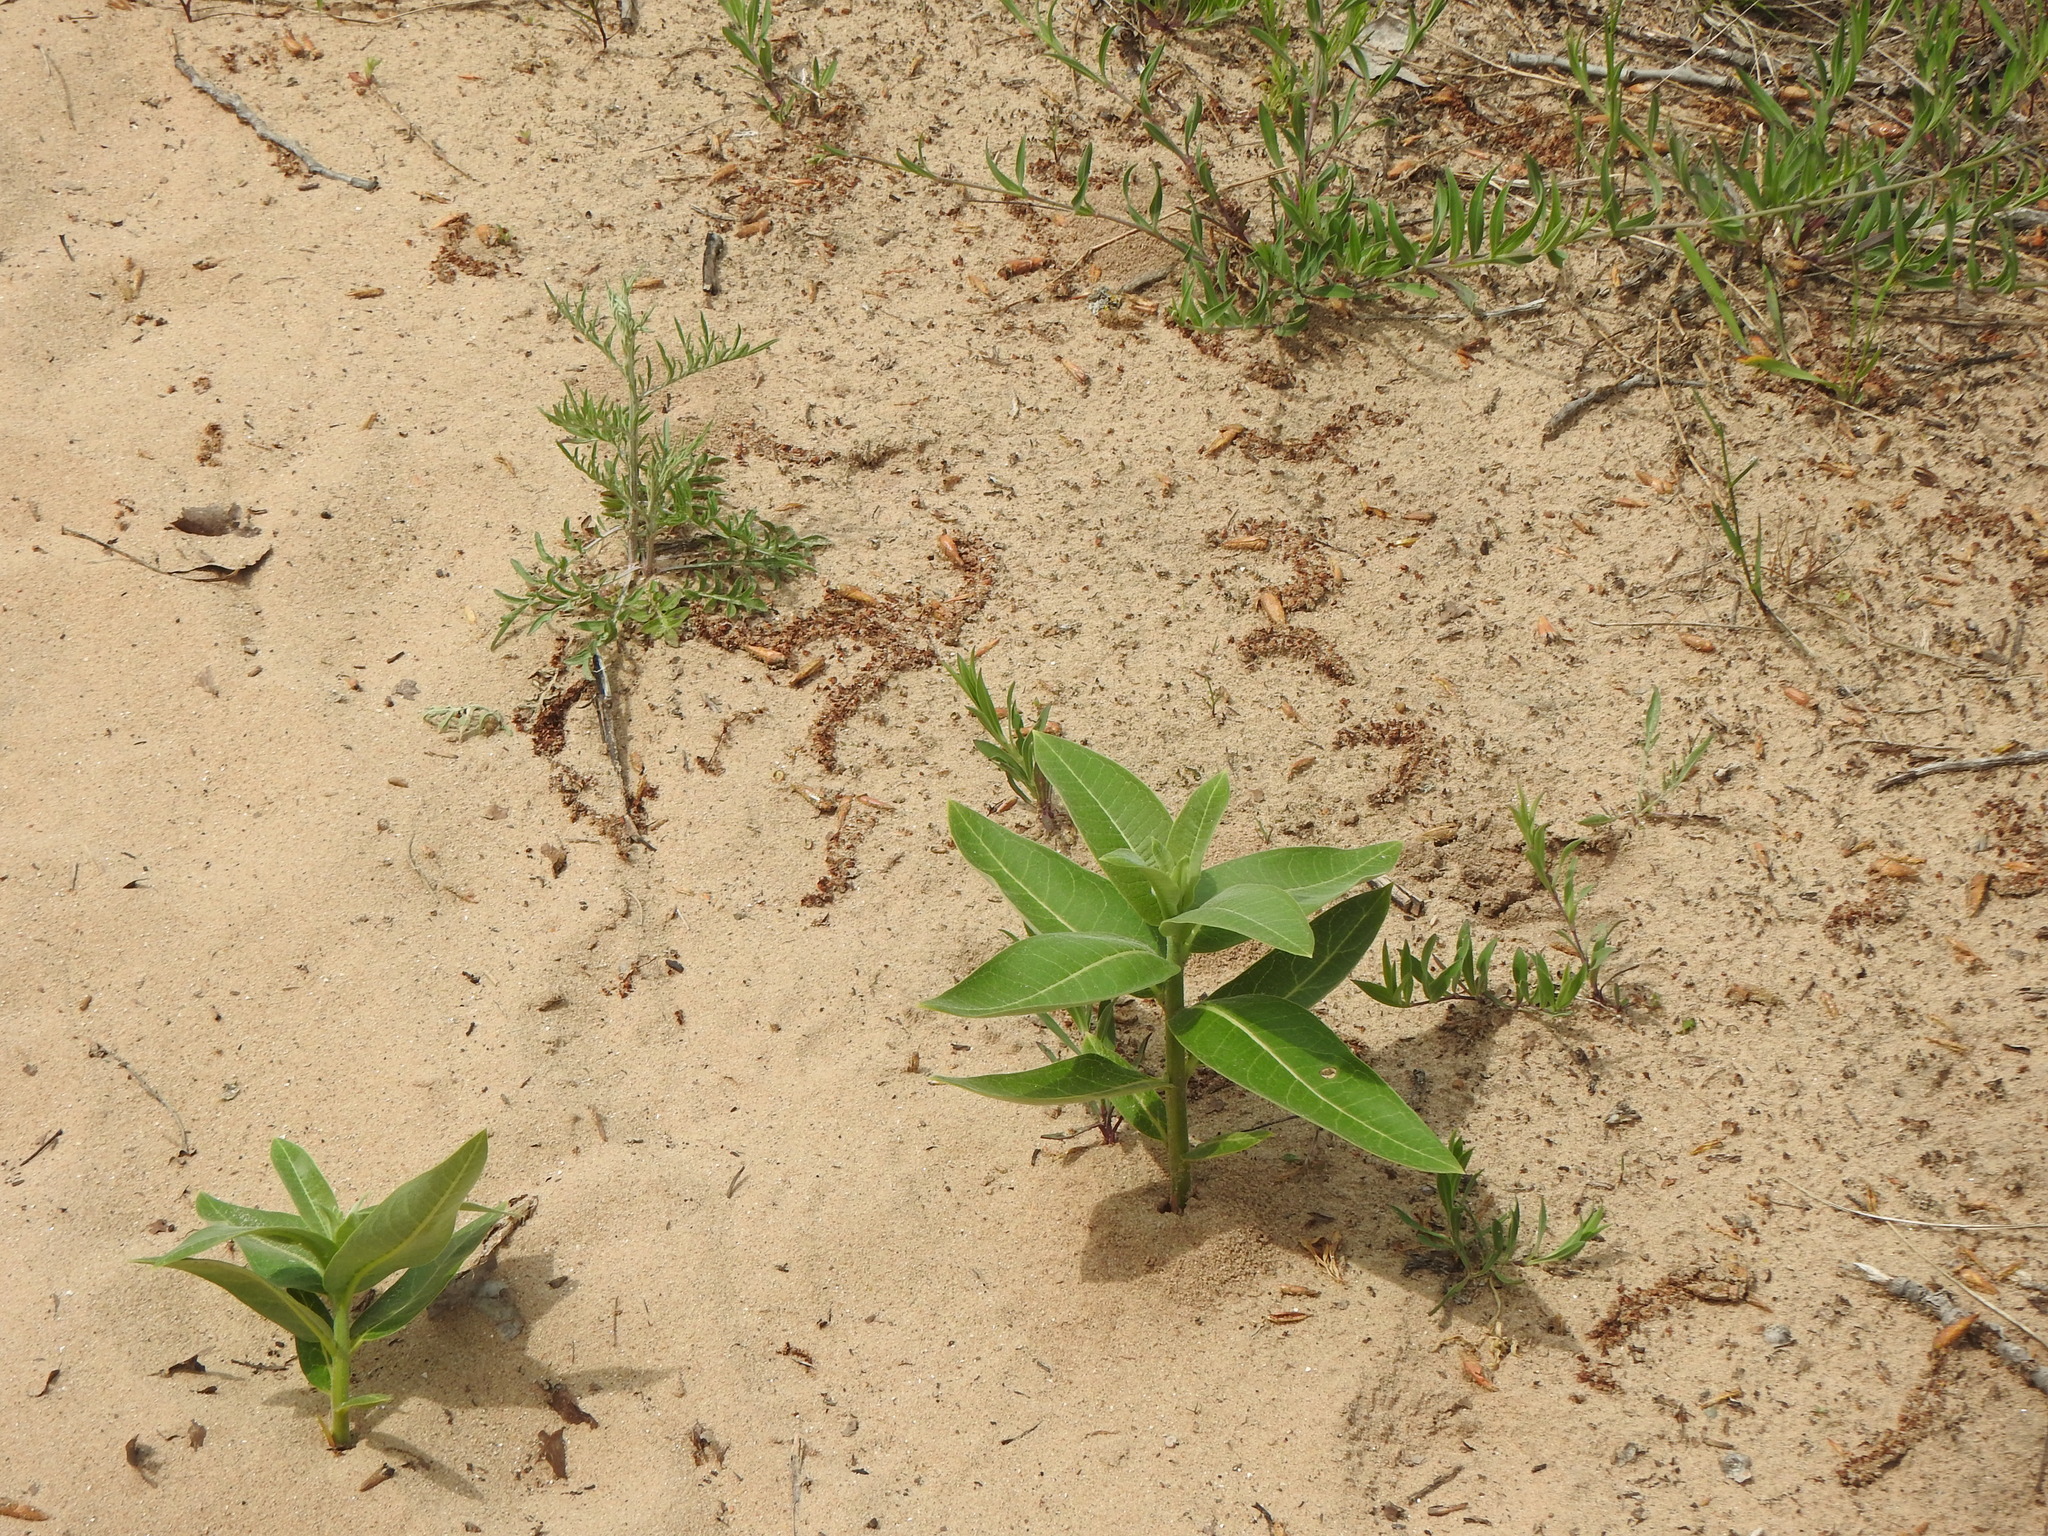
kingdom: Plantae
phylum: Tracheophyta
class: Magnoliopsida
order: Gentianales
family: Apocynaceae
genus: Asclepias
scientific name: Asclepias syriaca
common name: Common milkweed
